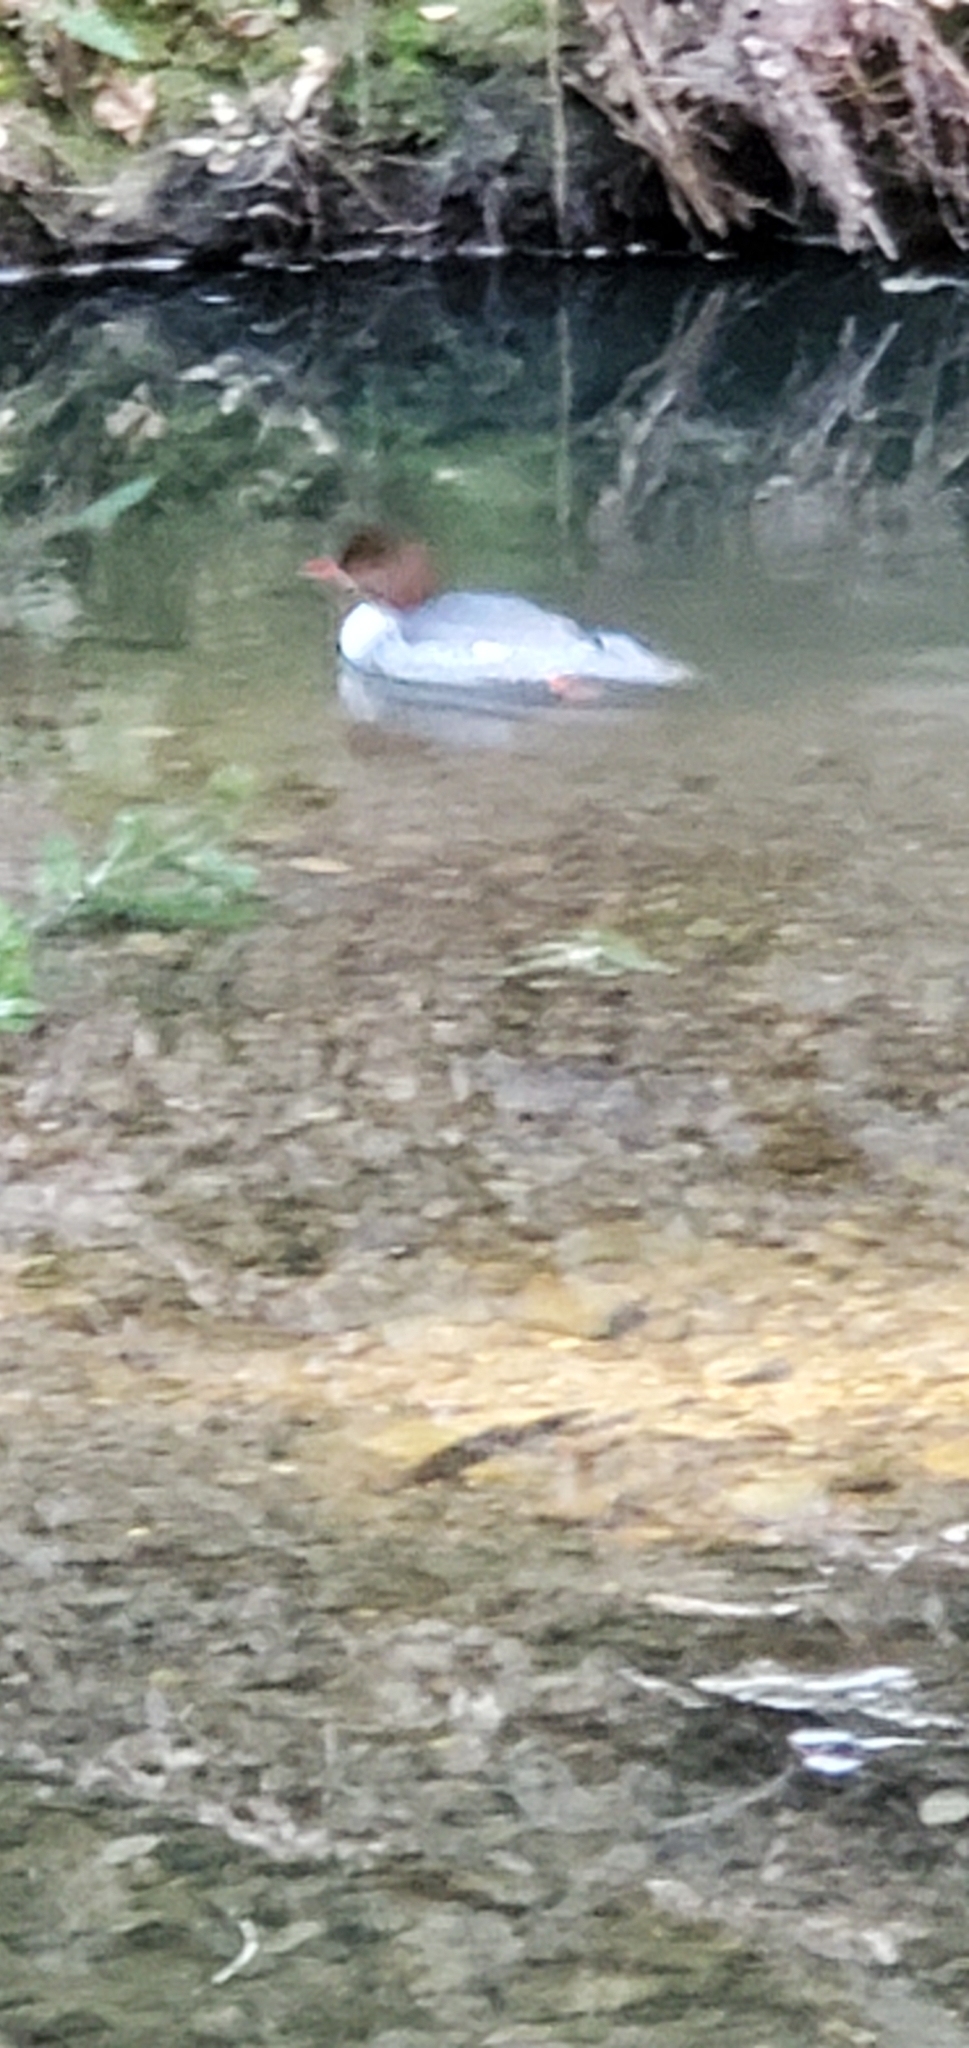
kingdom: Animalia
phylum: Chordata
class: Aves
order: Anseriformes
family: Anatidae
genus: Mergus
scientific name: Mergus merganser
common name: Common merganser
